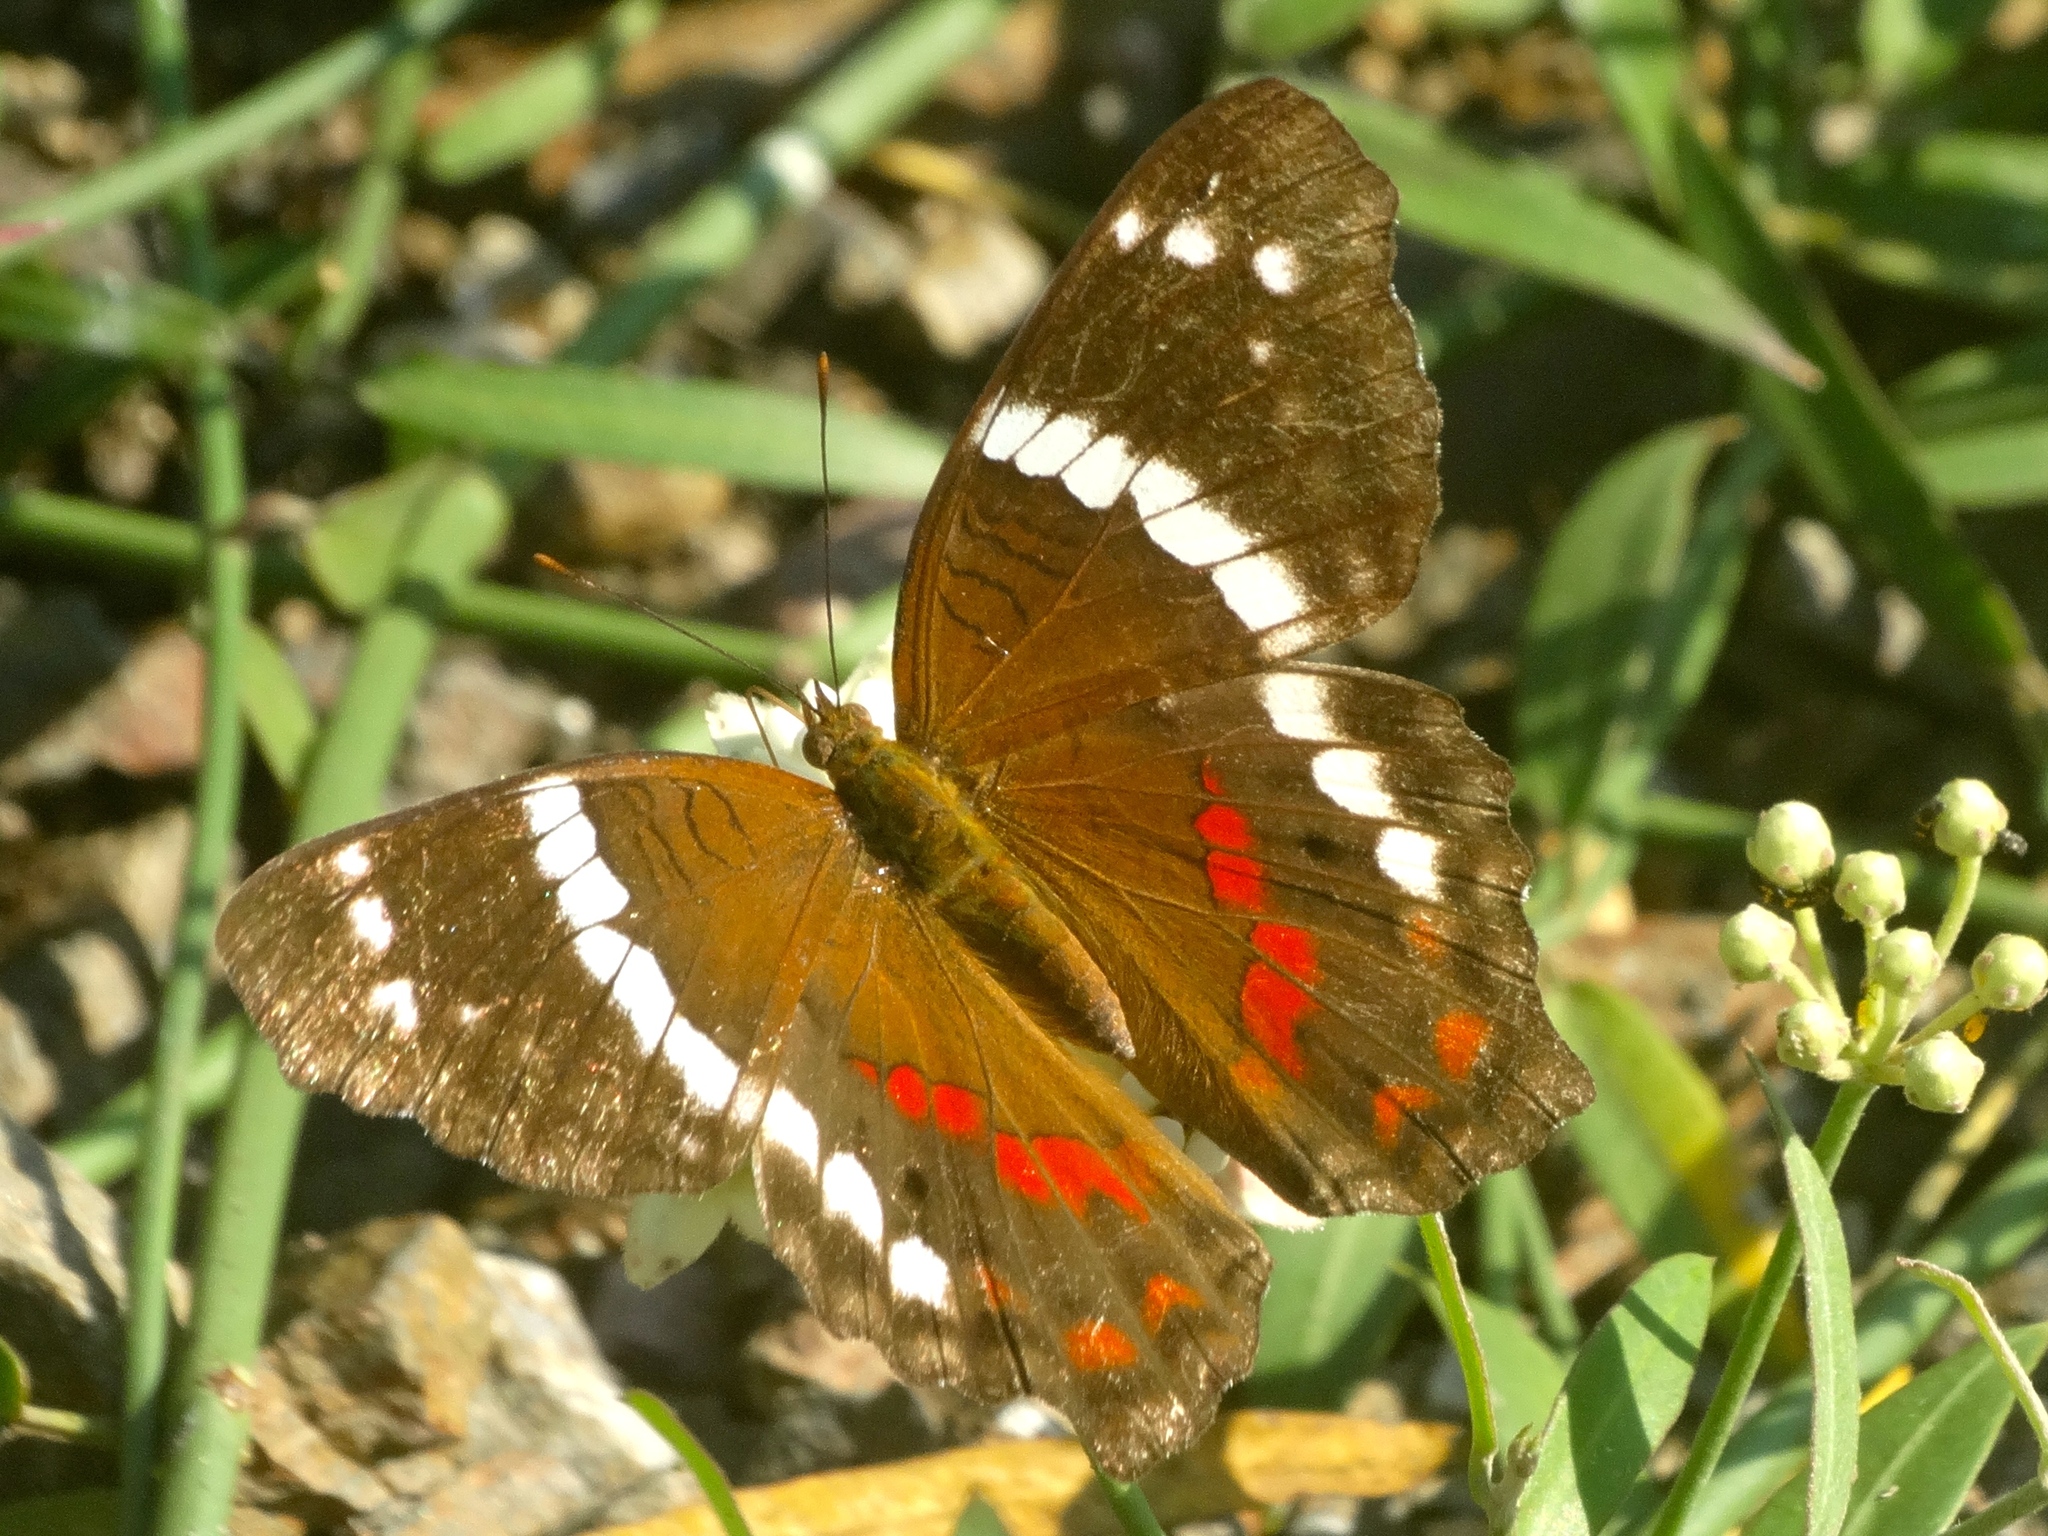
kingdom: Animalia
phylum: Arthropoda
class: Insecta
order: Lepidoptera
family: Nymphalidae
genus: Anartia
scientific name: Anartia fatima
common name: Banded peacock
